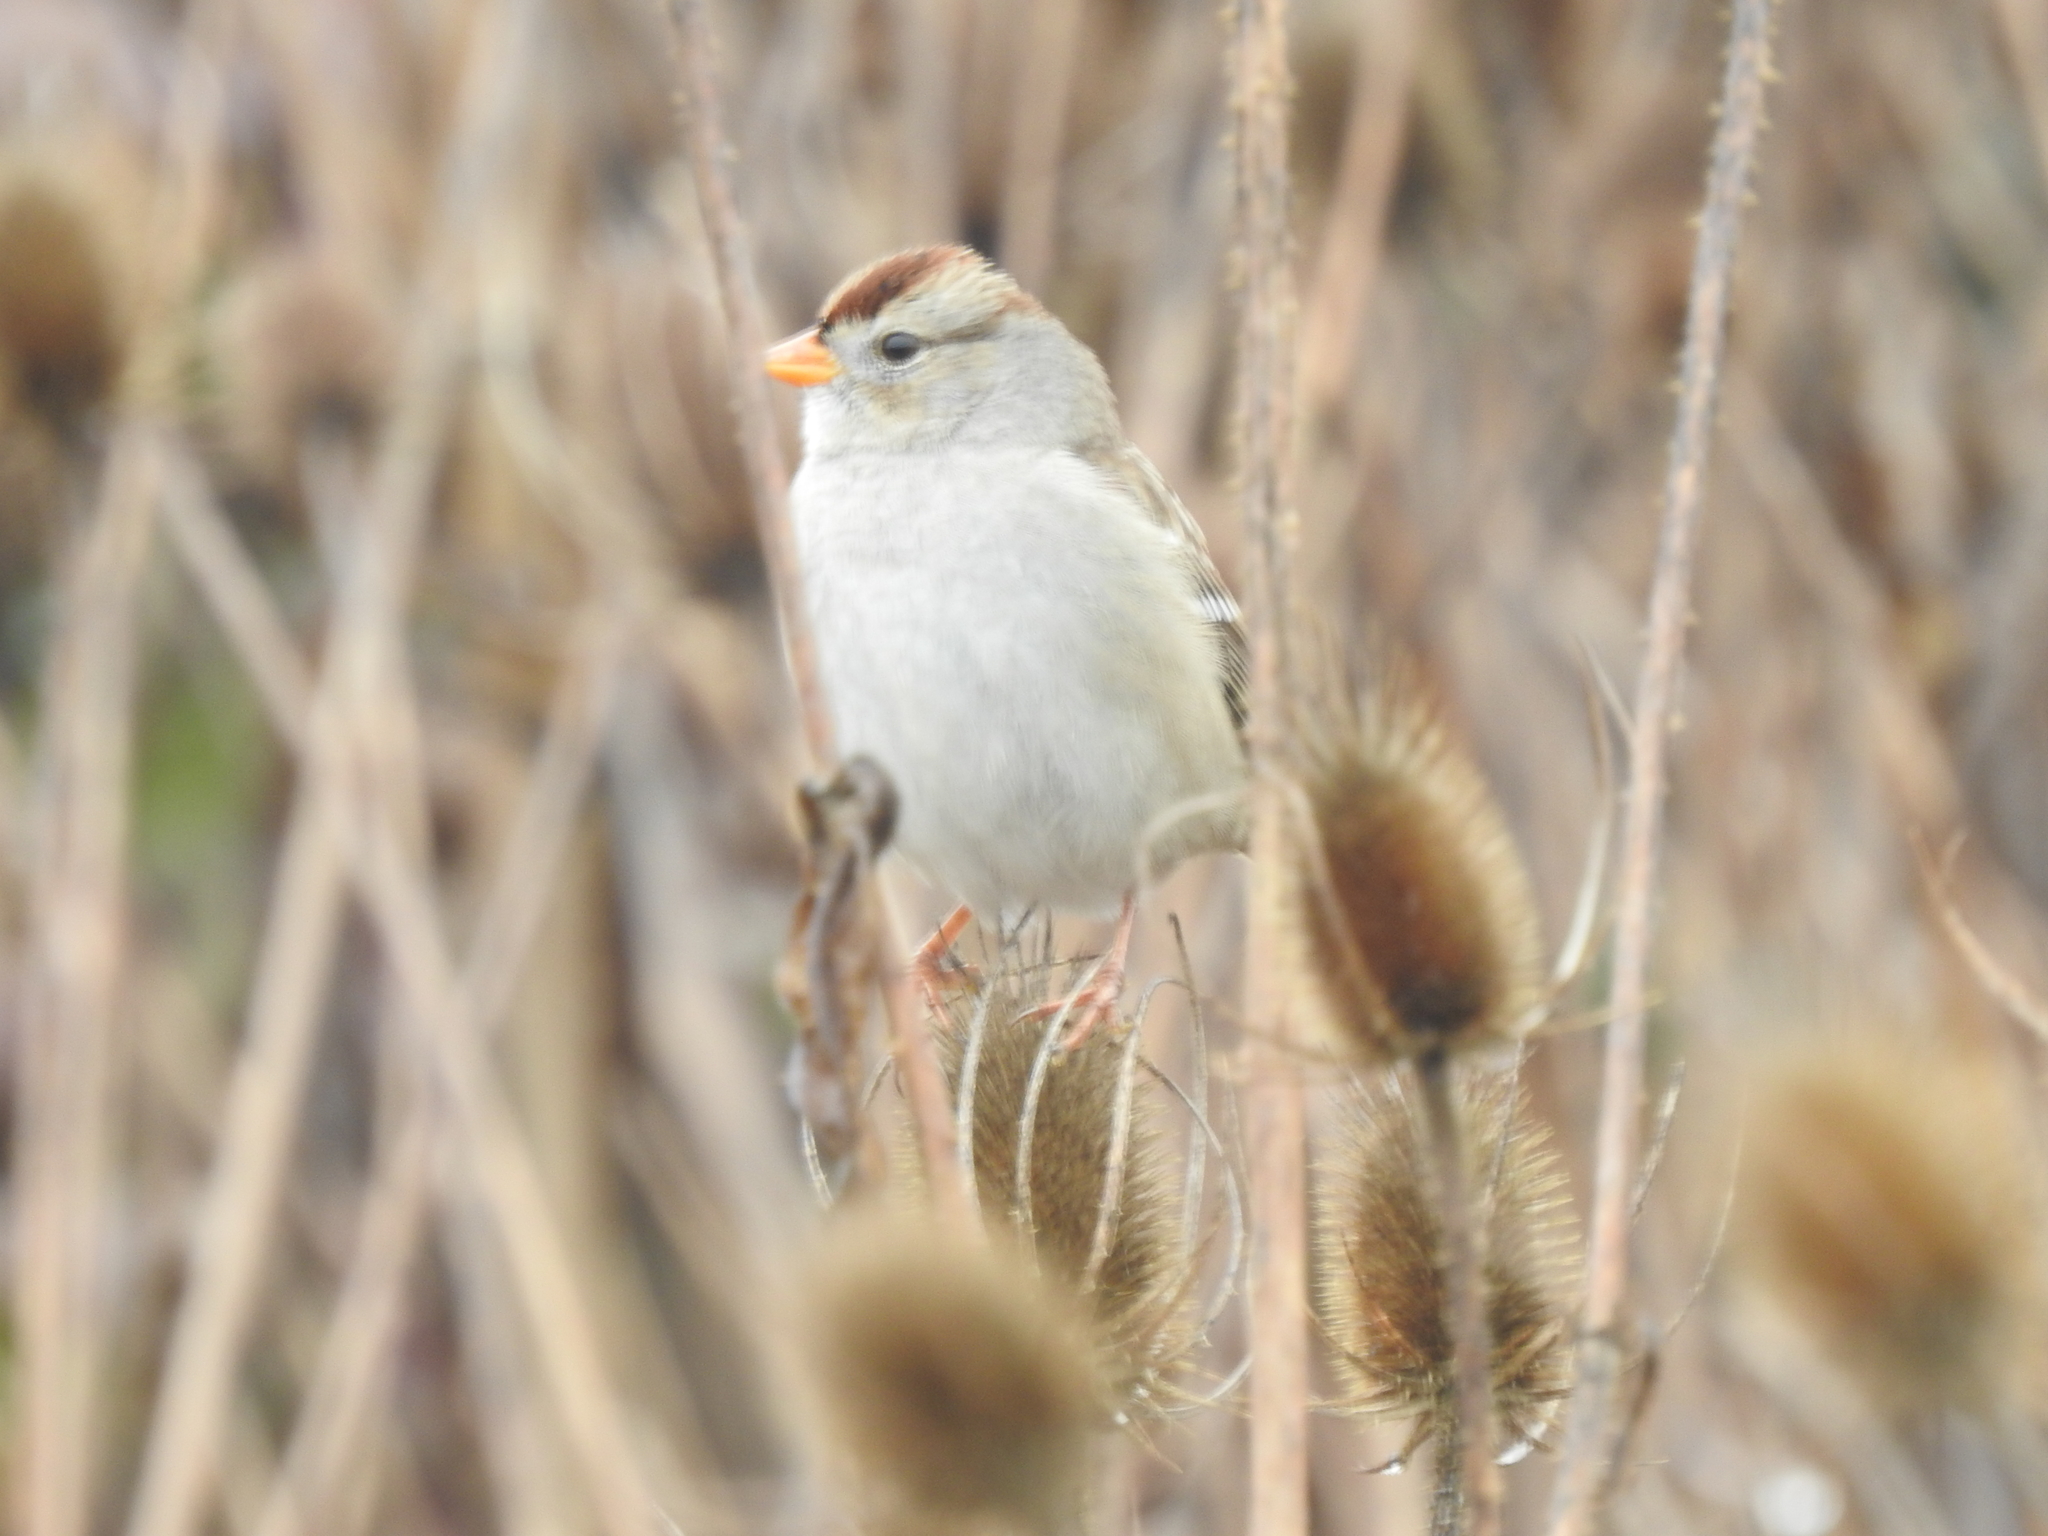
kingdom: Animalia
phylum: Chordata
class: Aves
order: Passeriformes
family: Passerellidae
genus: Zonotrichia
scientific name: Zonotrichia leucophrys
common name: White-crowned sparrow
